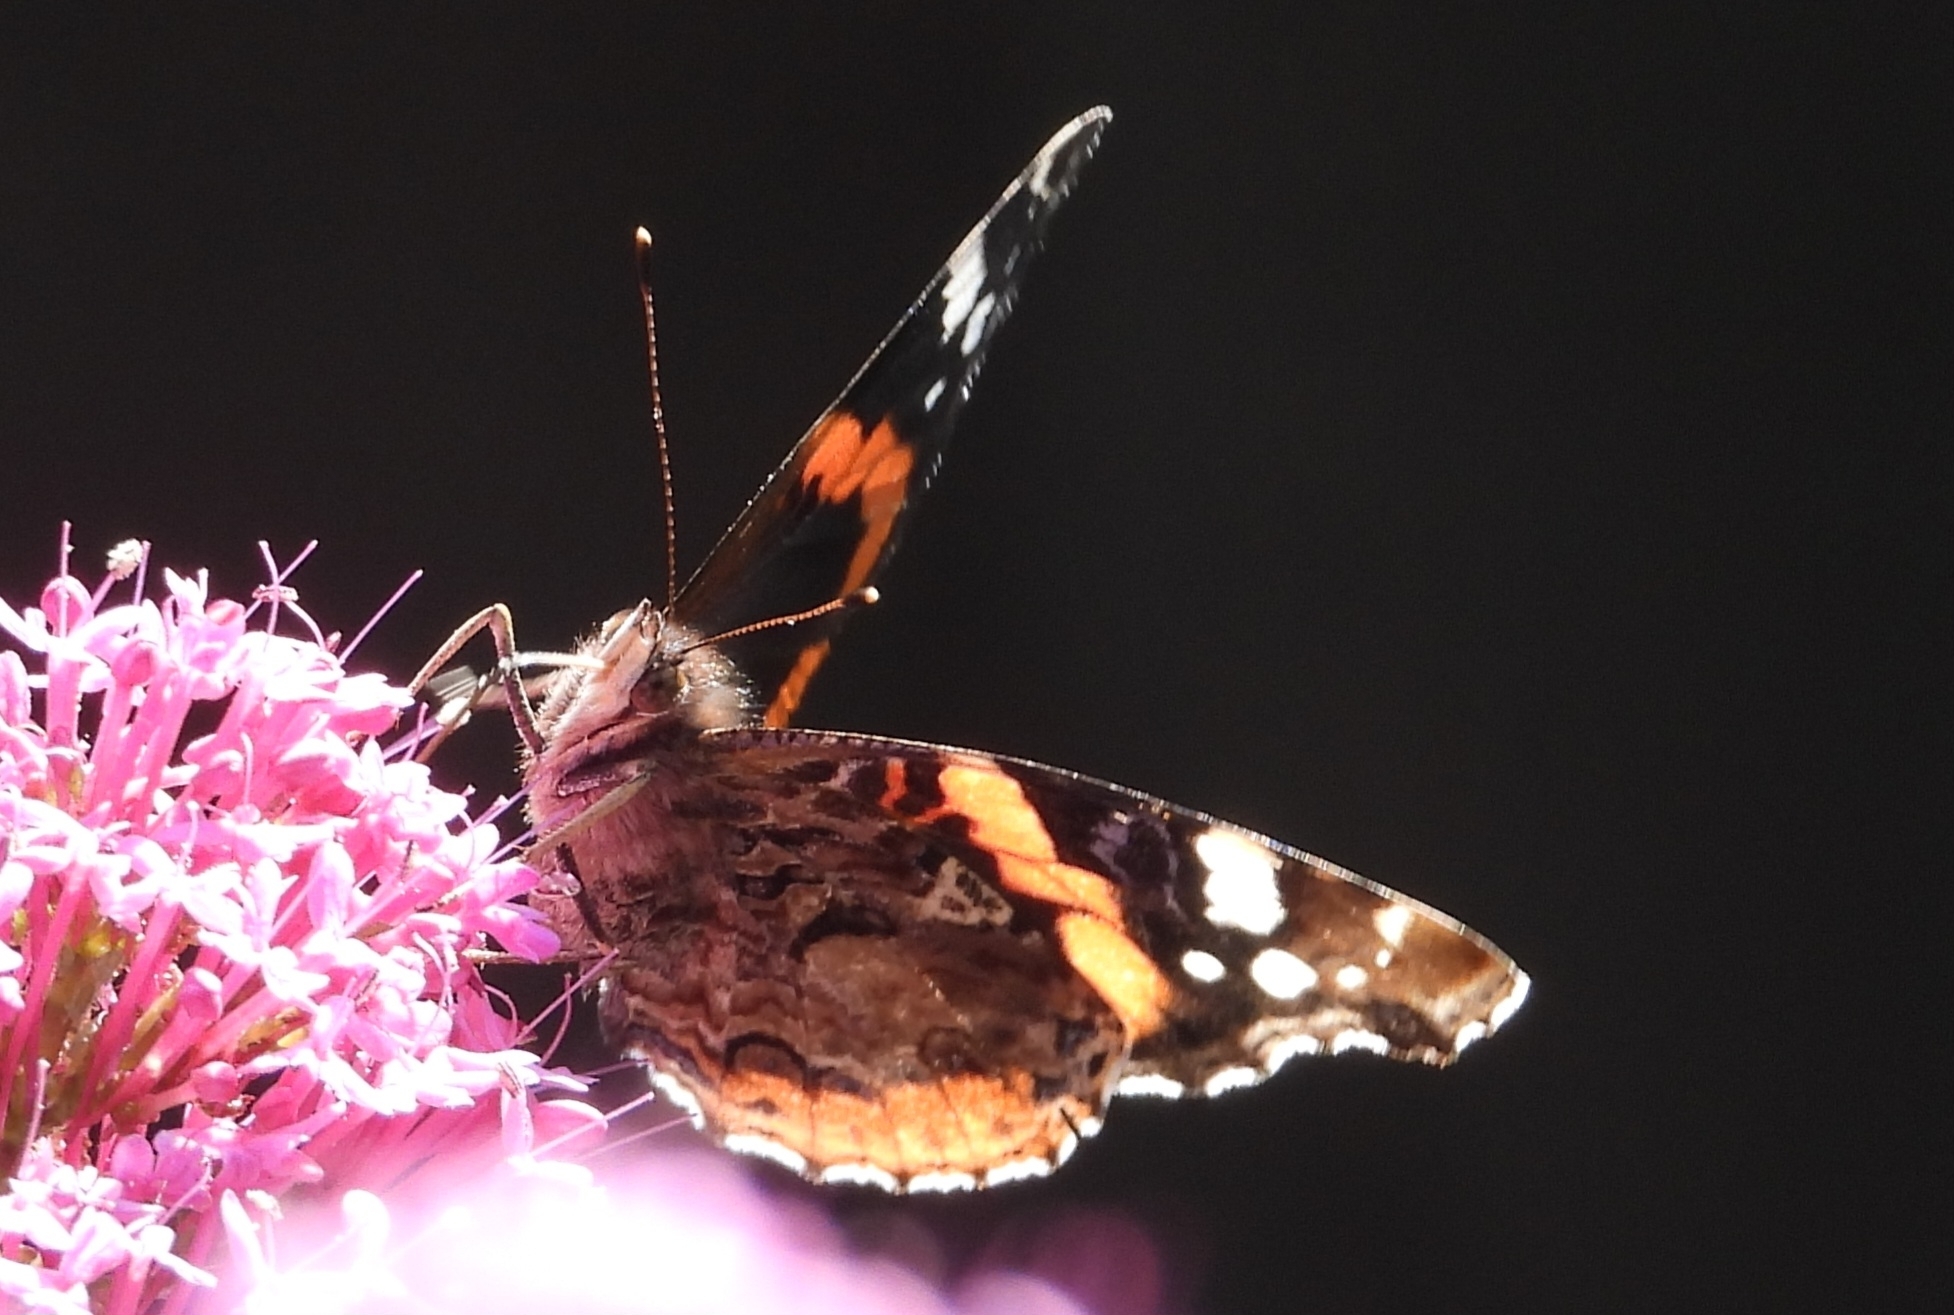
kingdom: Animalia
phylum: Arthropoda
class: Insecta
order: Lepidoptera
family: Nymphalidae
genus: Vanessa
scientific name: Vanessa atalanta
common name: Red admiral
